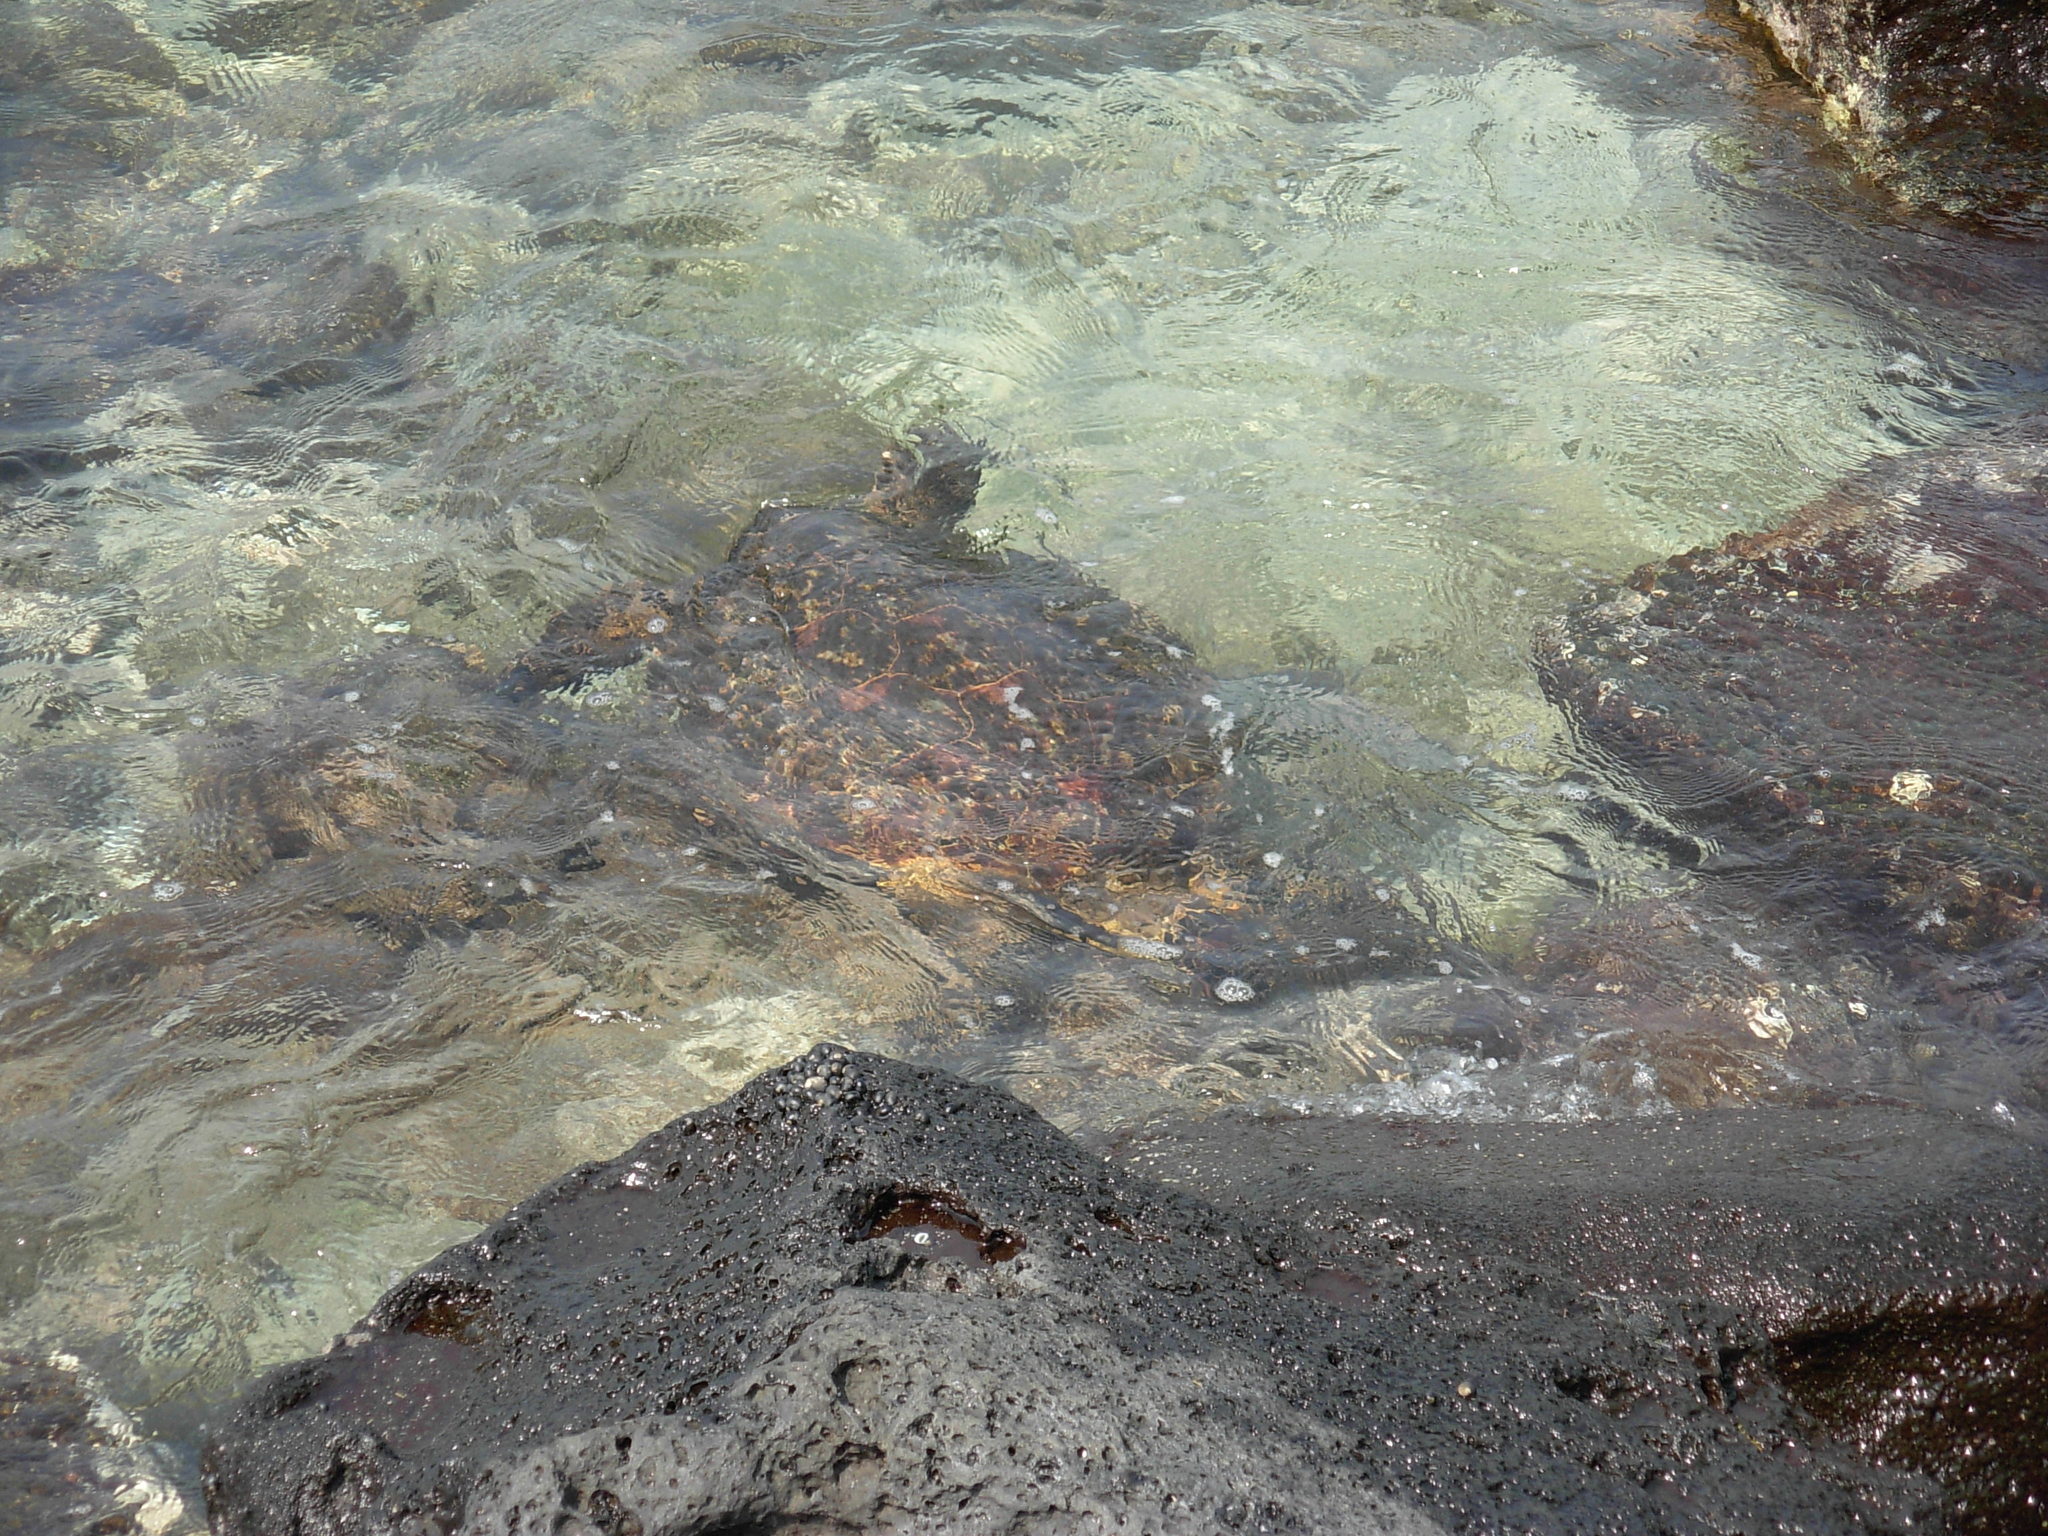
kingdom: Animalia
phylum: Chordata
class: Testudines
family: Cheloniidae
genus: Chelonia
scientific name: Chelonia mydas
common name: Green turtle
